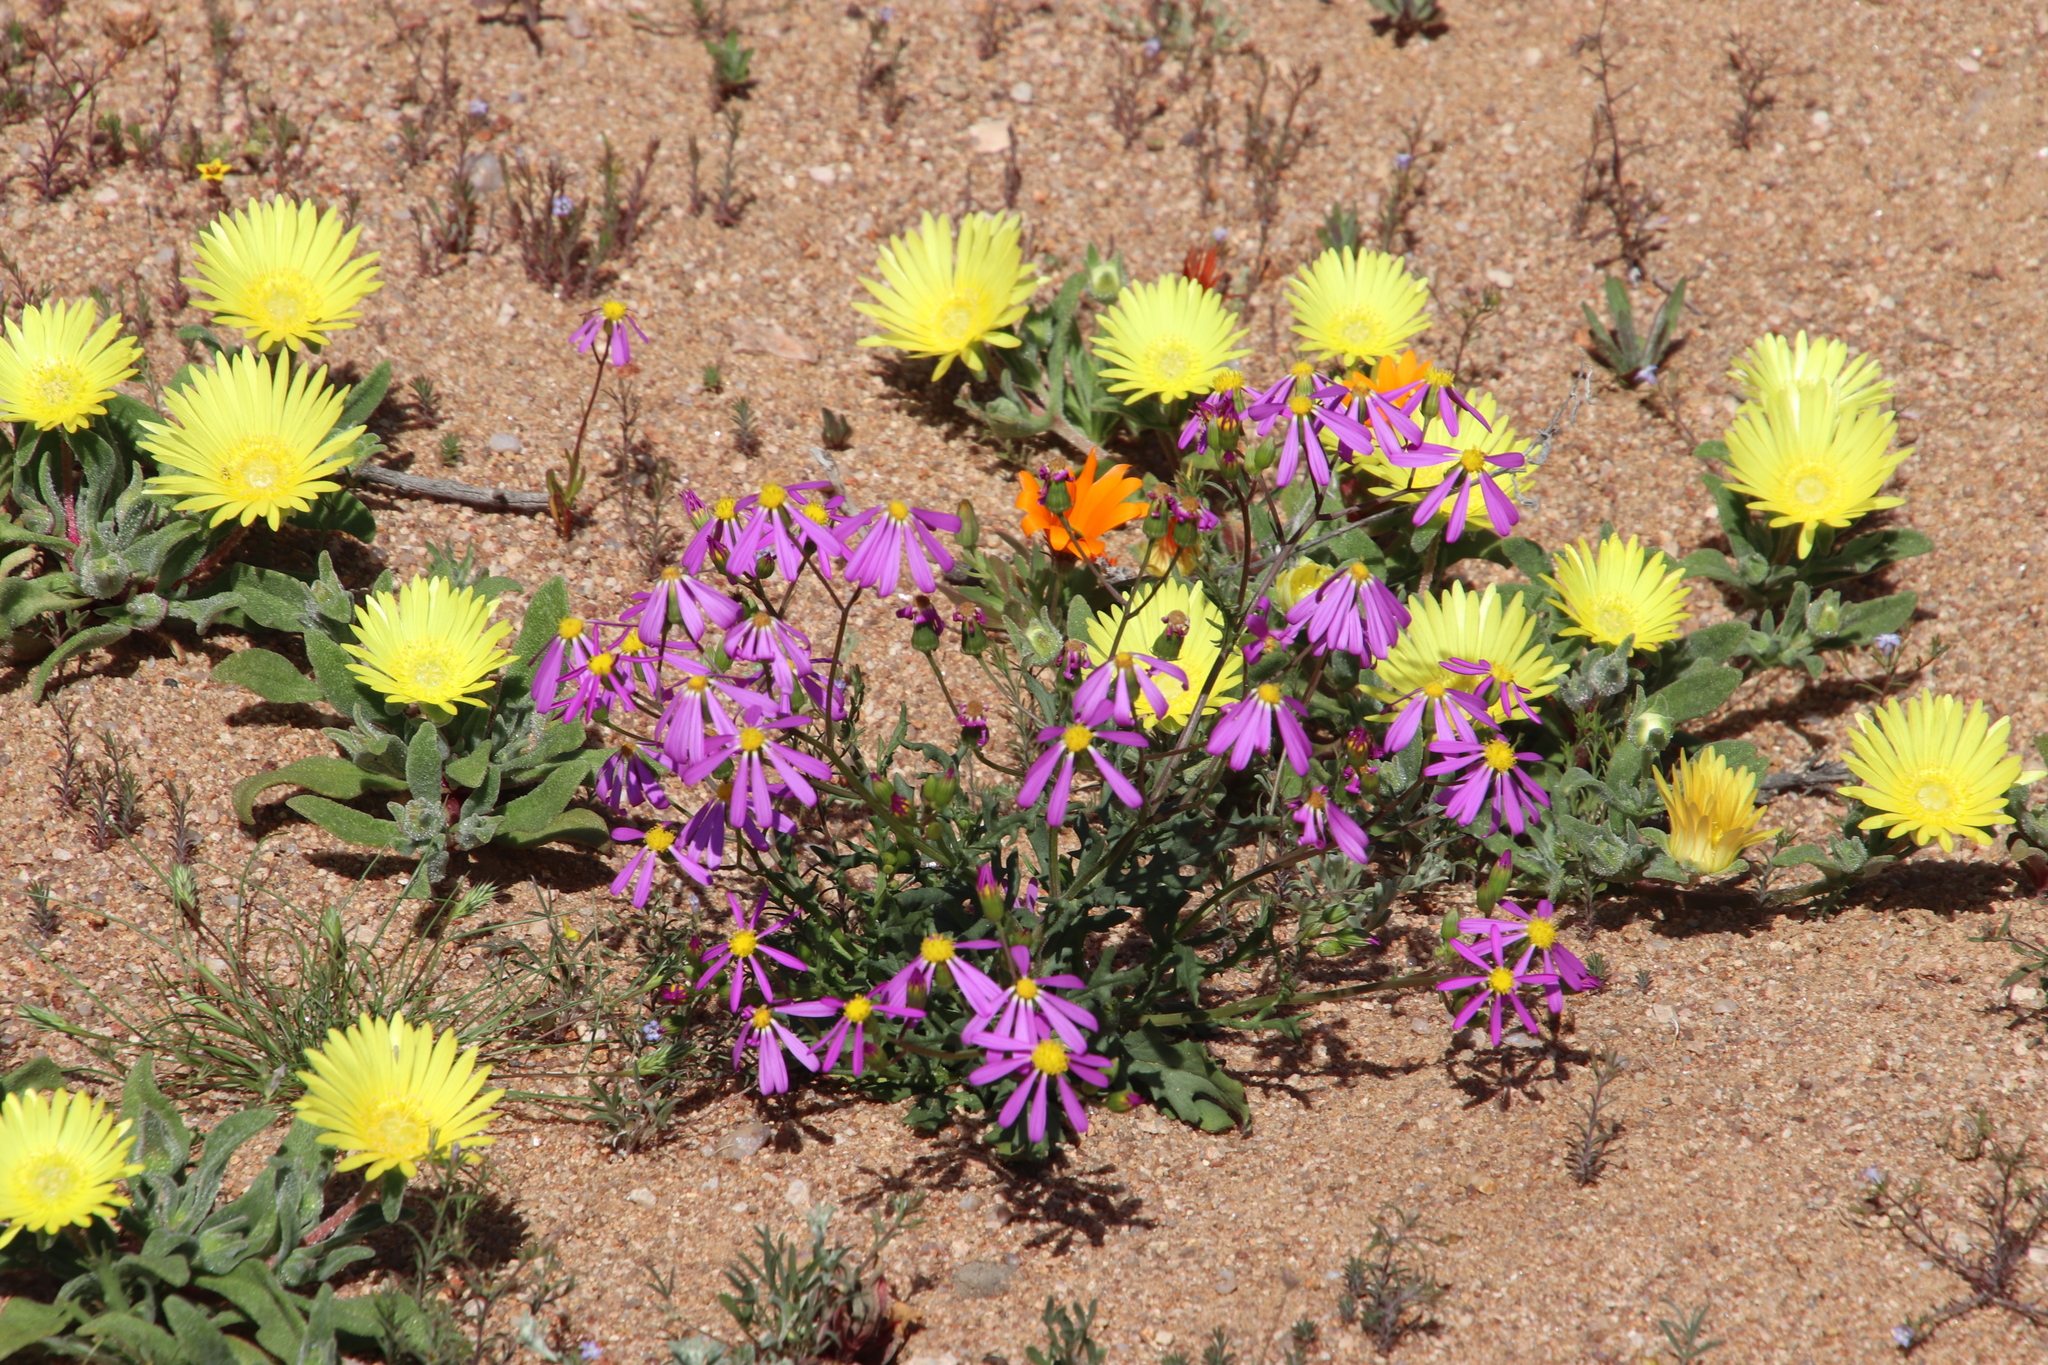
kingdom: Plantae
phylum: Tracheophyta
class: Magnoliopsida
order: Asterales
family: Asteraceae
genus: Senecio
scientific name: Senecio arenarius
